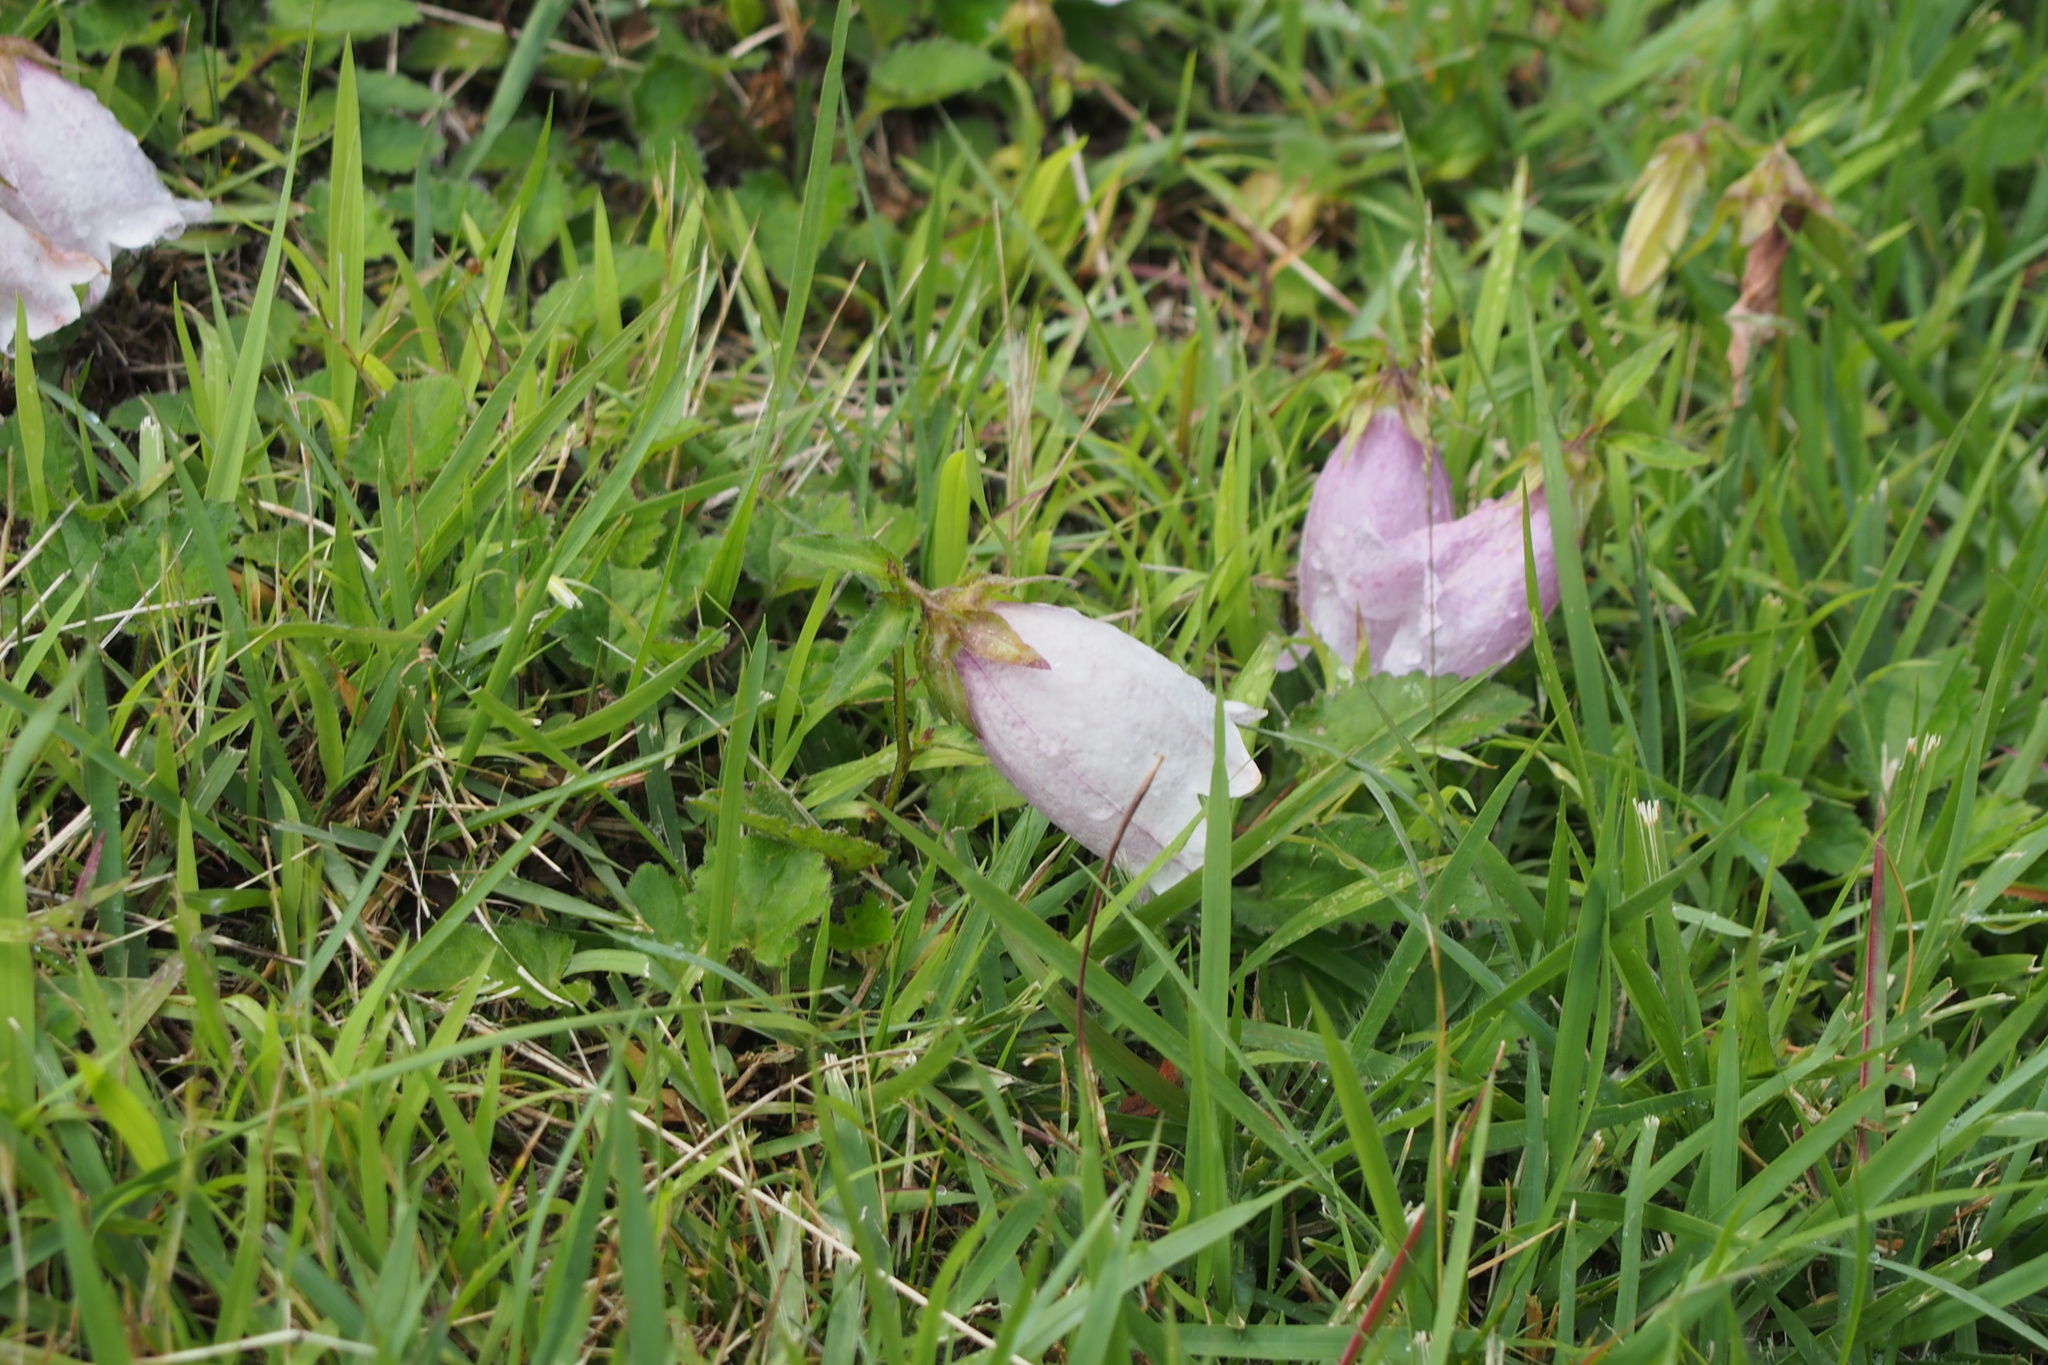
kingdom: Plantae
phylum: Tracheophyta
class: Magnoliopsida
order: Asterales
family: Campanulaceae
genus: Campanula
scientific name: Campanula punctata
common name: Spotted bellflower
